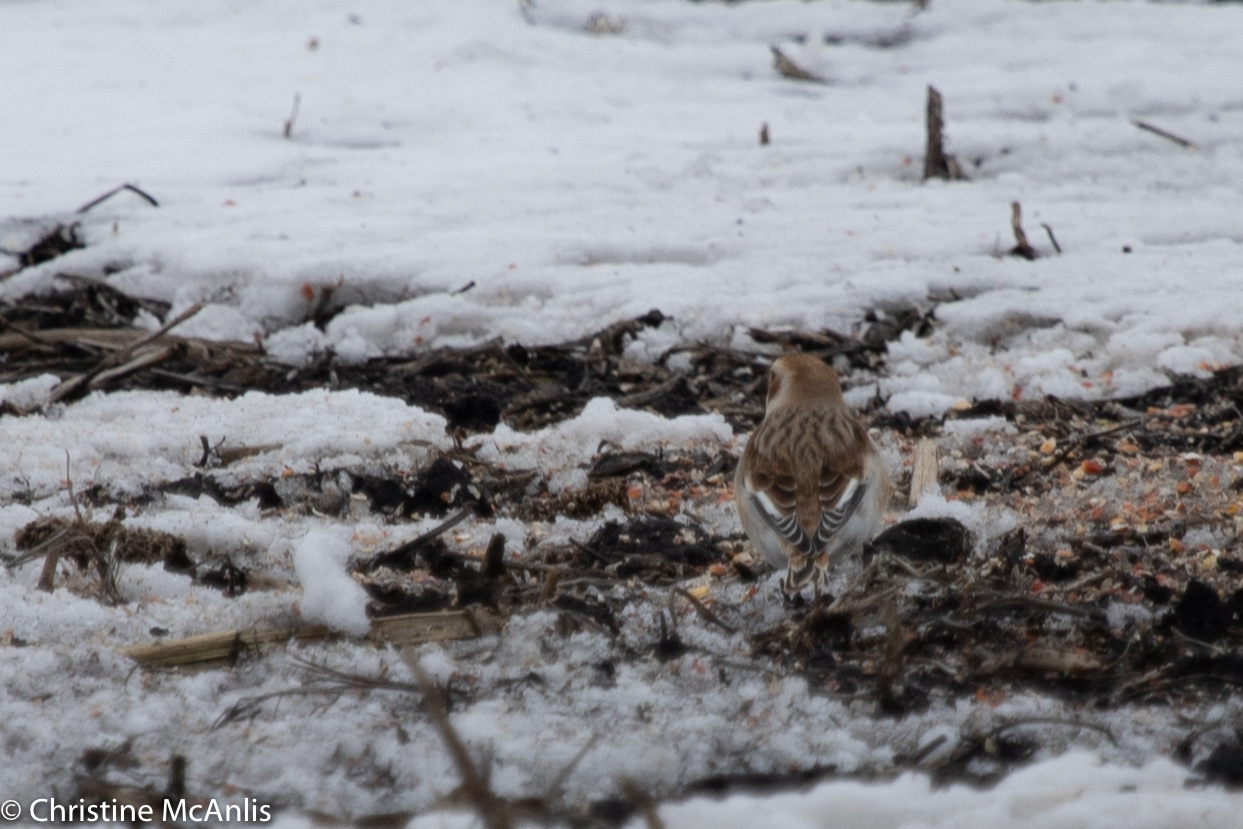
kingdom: Animalia
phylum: Chordata
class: Aves
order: Passeriformes
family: Calcariidae
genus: Plectrophenax
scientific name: Plectrophenax nivalis
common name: Snow bunting
